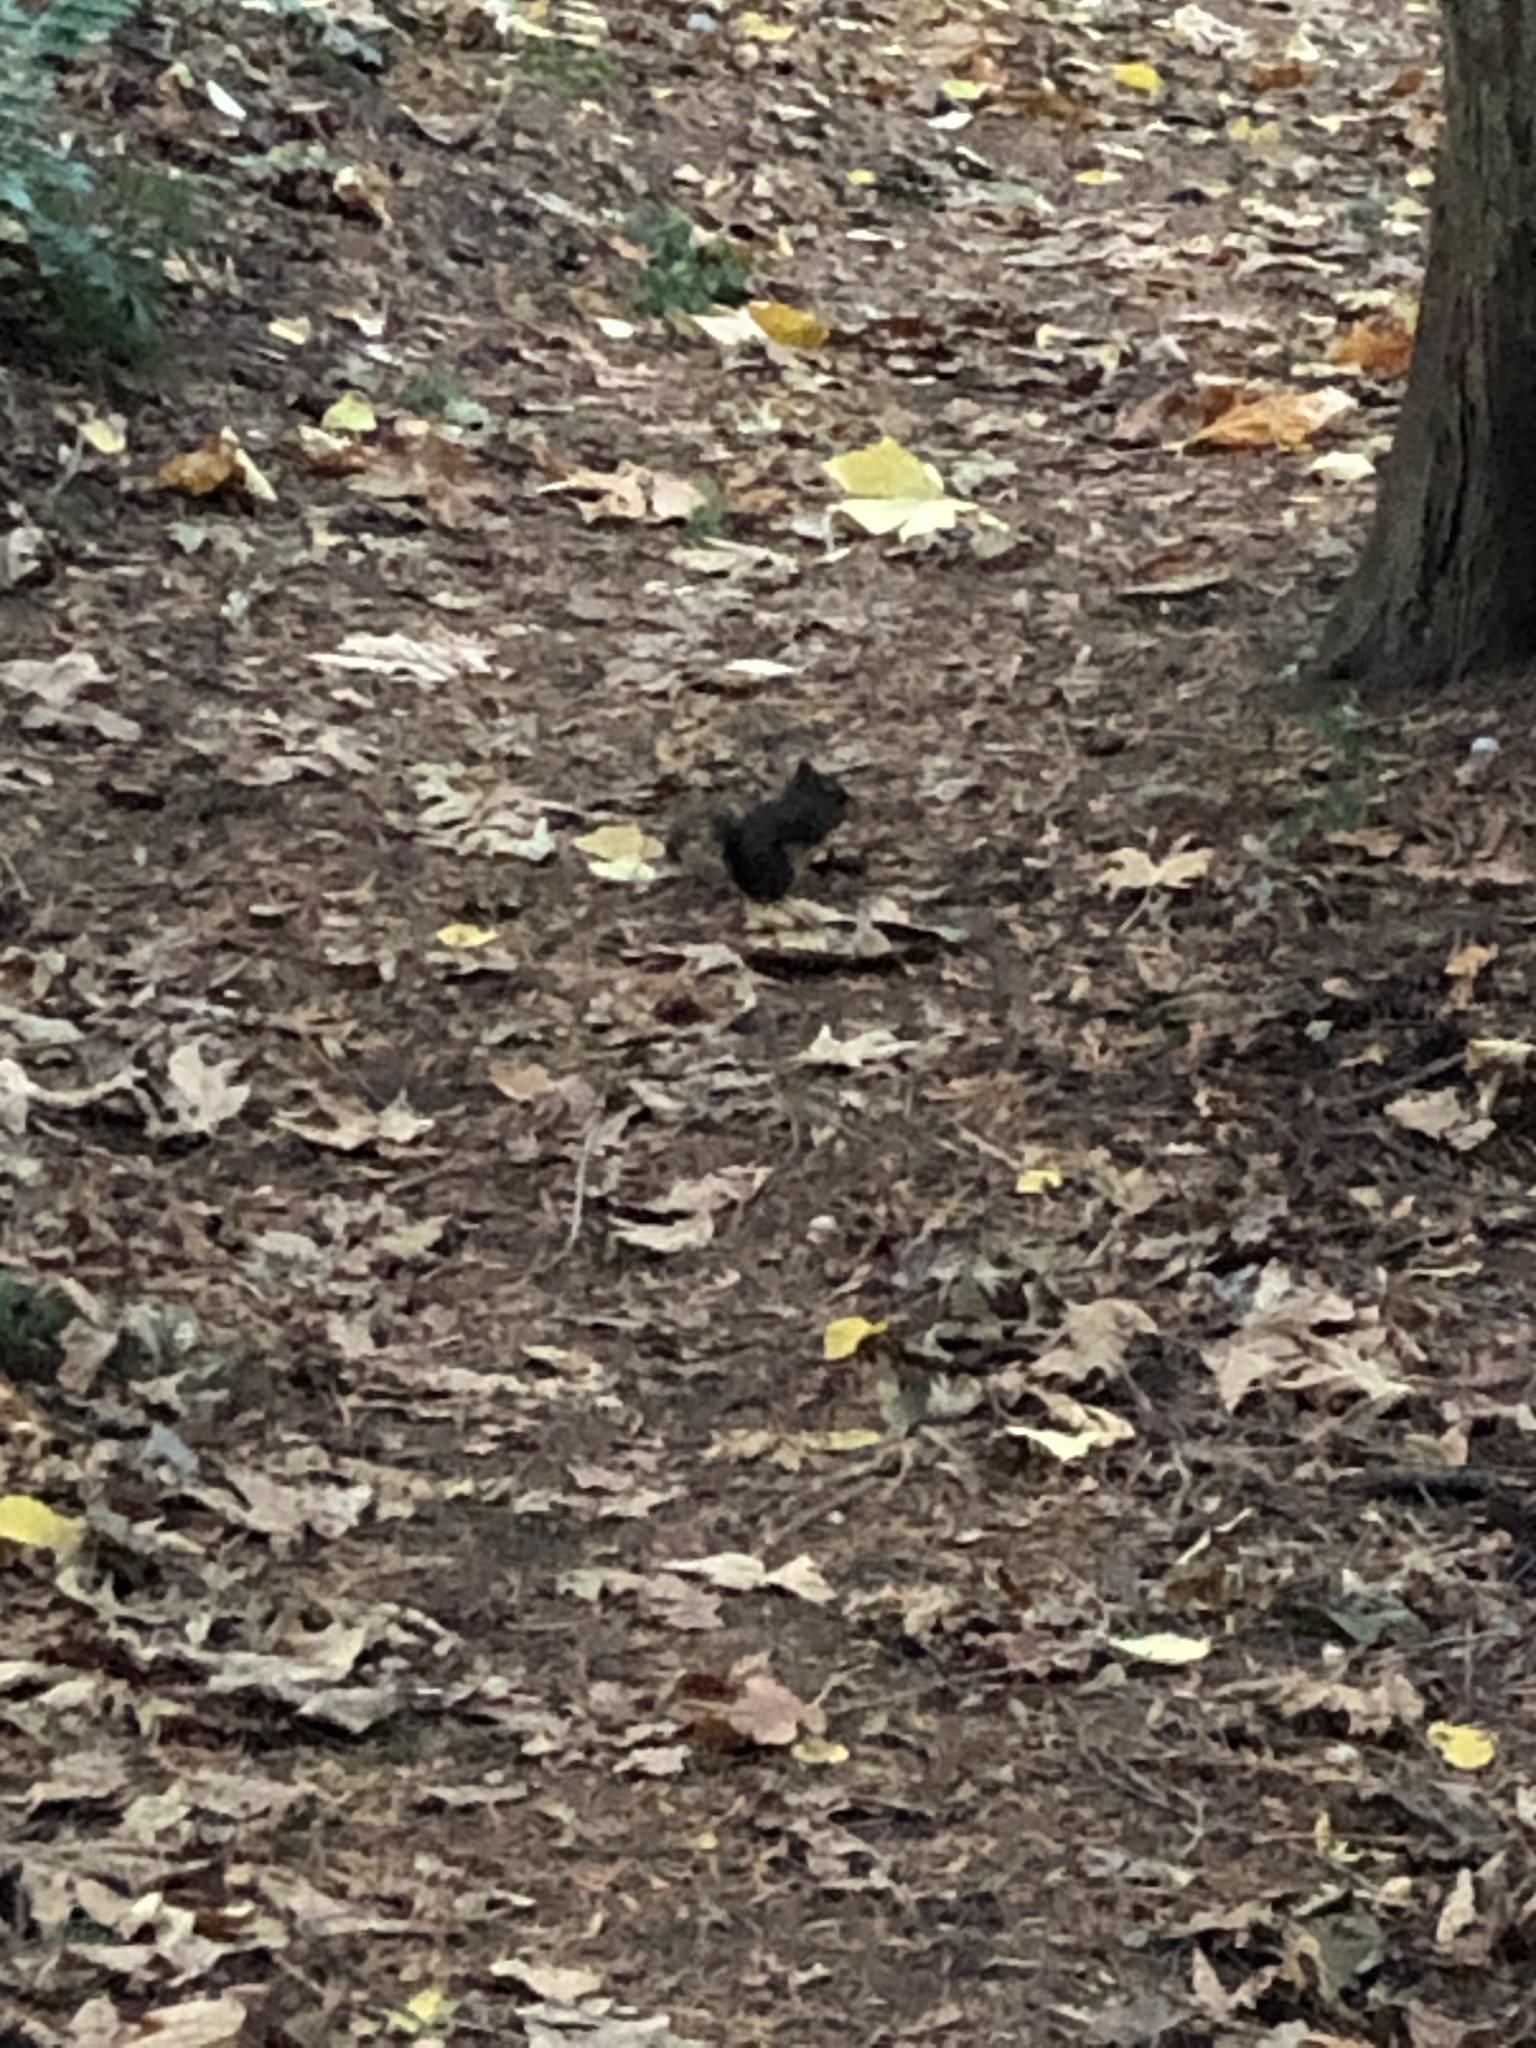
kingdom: Animalia
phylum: Chordata
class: Mammalia
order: Rodentia
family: Sciuridae
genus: Tamiasciurus
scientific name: Tamiasciurus douglasii
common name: Douglas's squirrel
